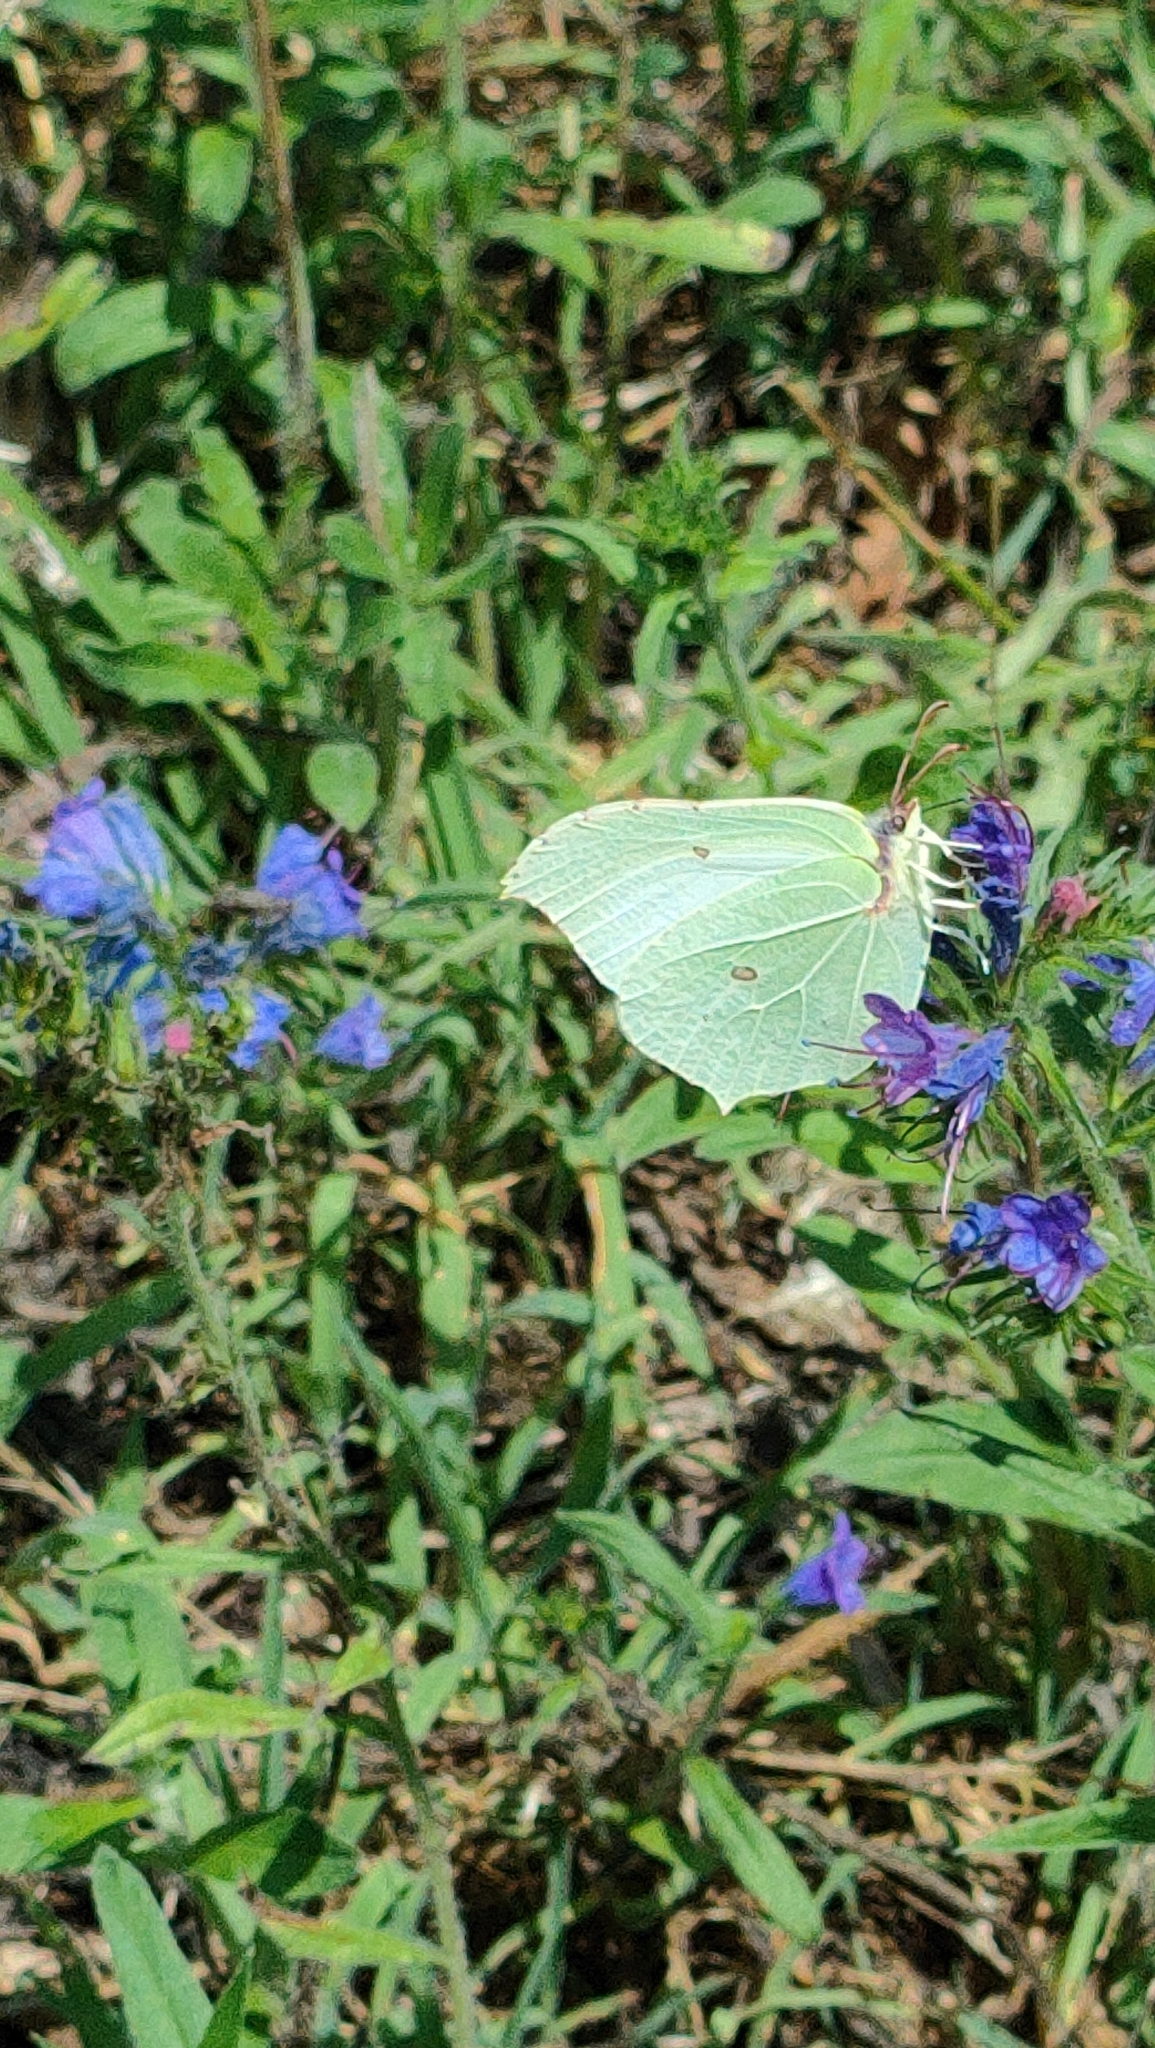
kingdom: Animalia
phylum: Arthropoda
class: Insecta
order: Lepidoptera
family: Pieridae
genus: Gonepteryx
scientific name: Gonepteryx rhamni
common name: Brimstone
